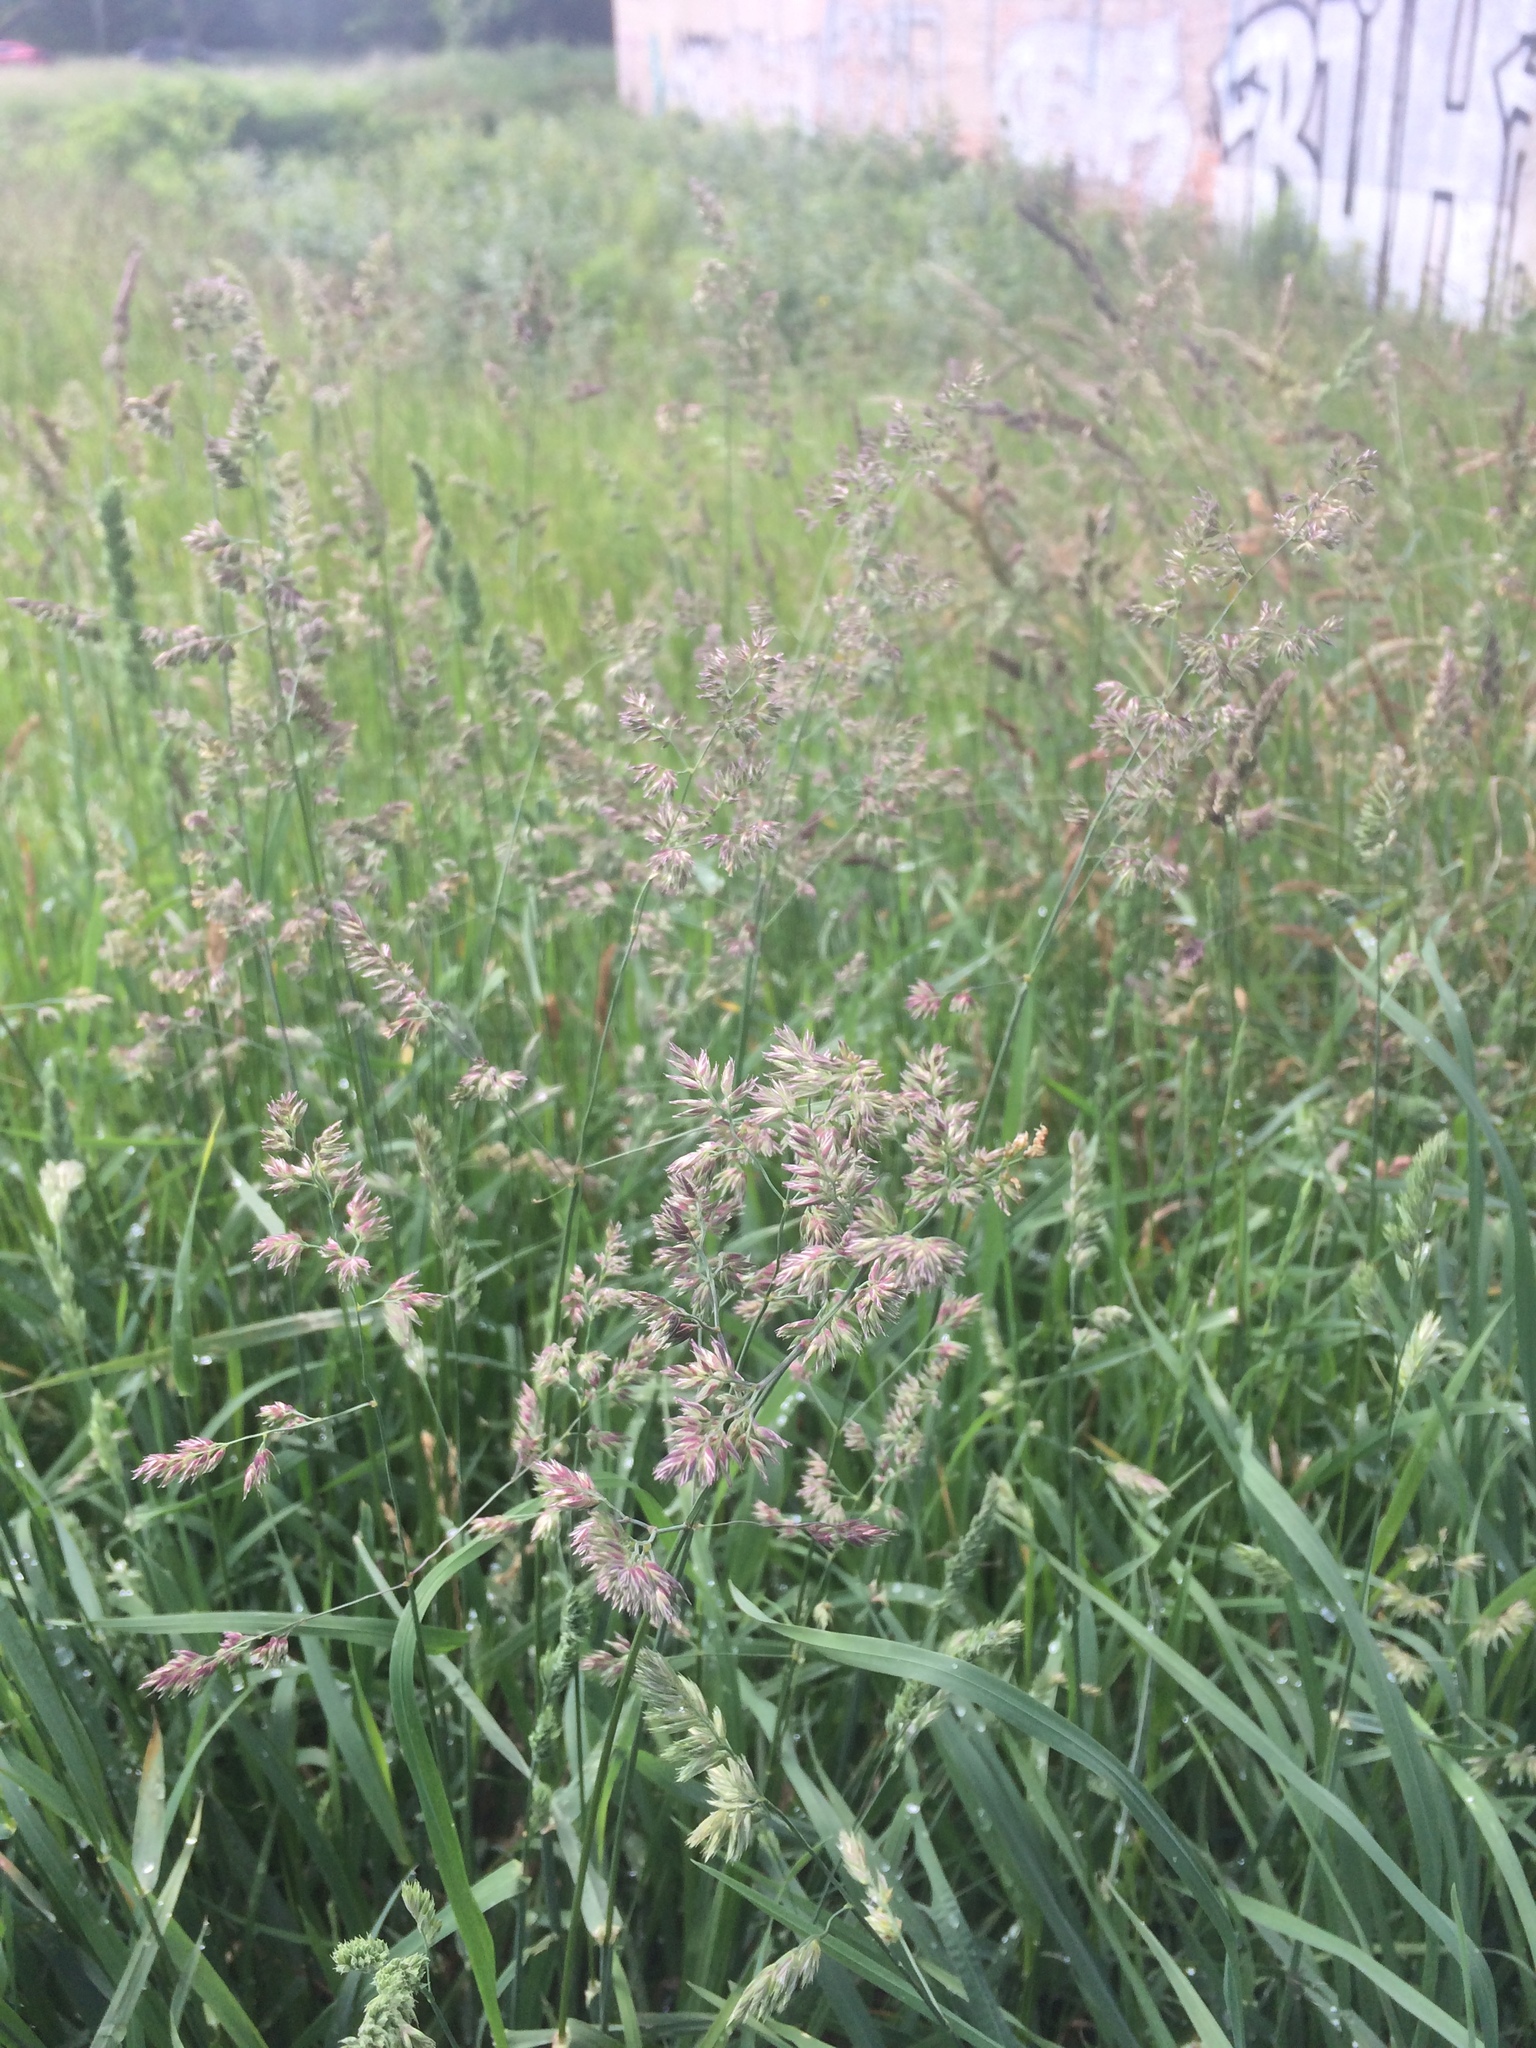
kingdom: Plantae
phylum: Tracheophyta
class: Liliopsida
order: Poales
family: Poaceae
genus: Dactylis
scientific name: Dactylis glomerata
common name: Orchardgrass
